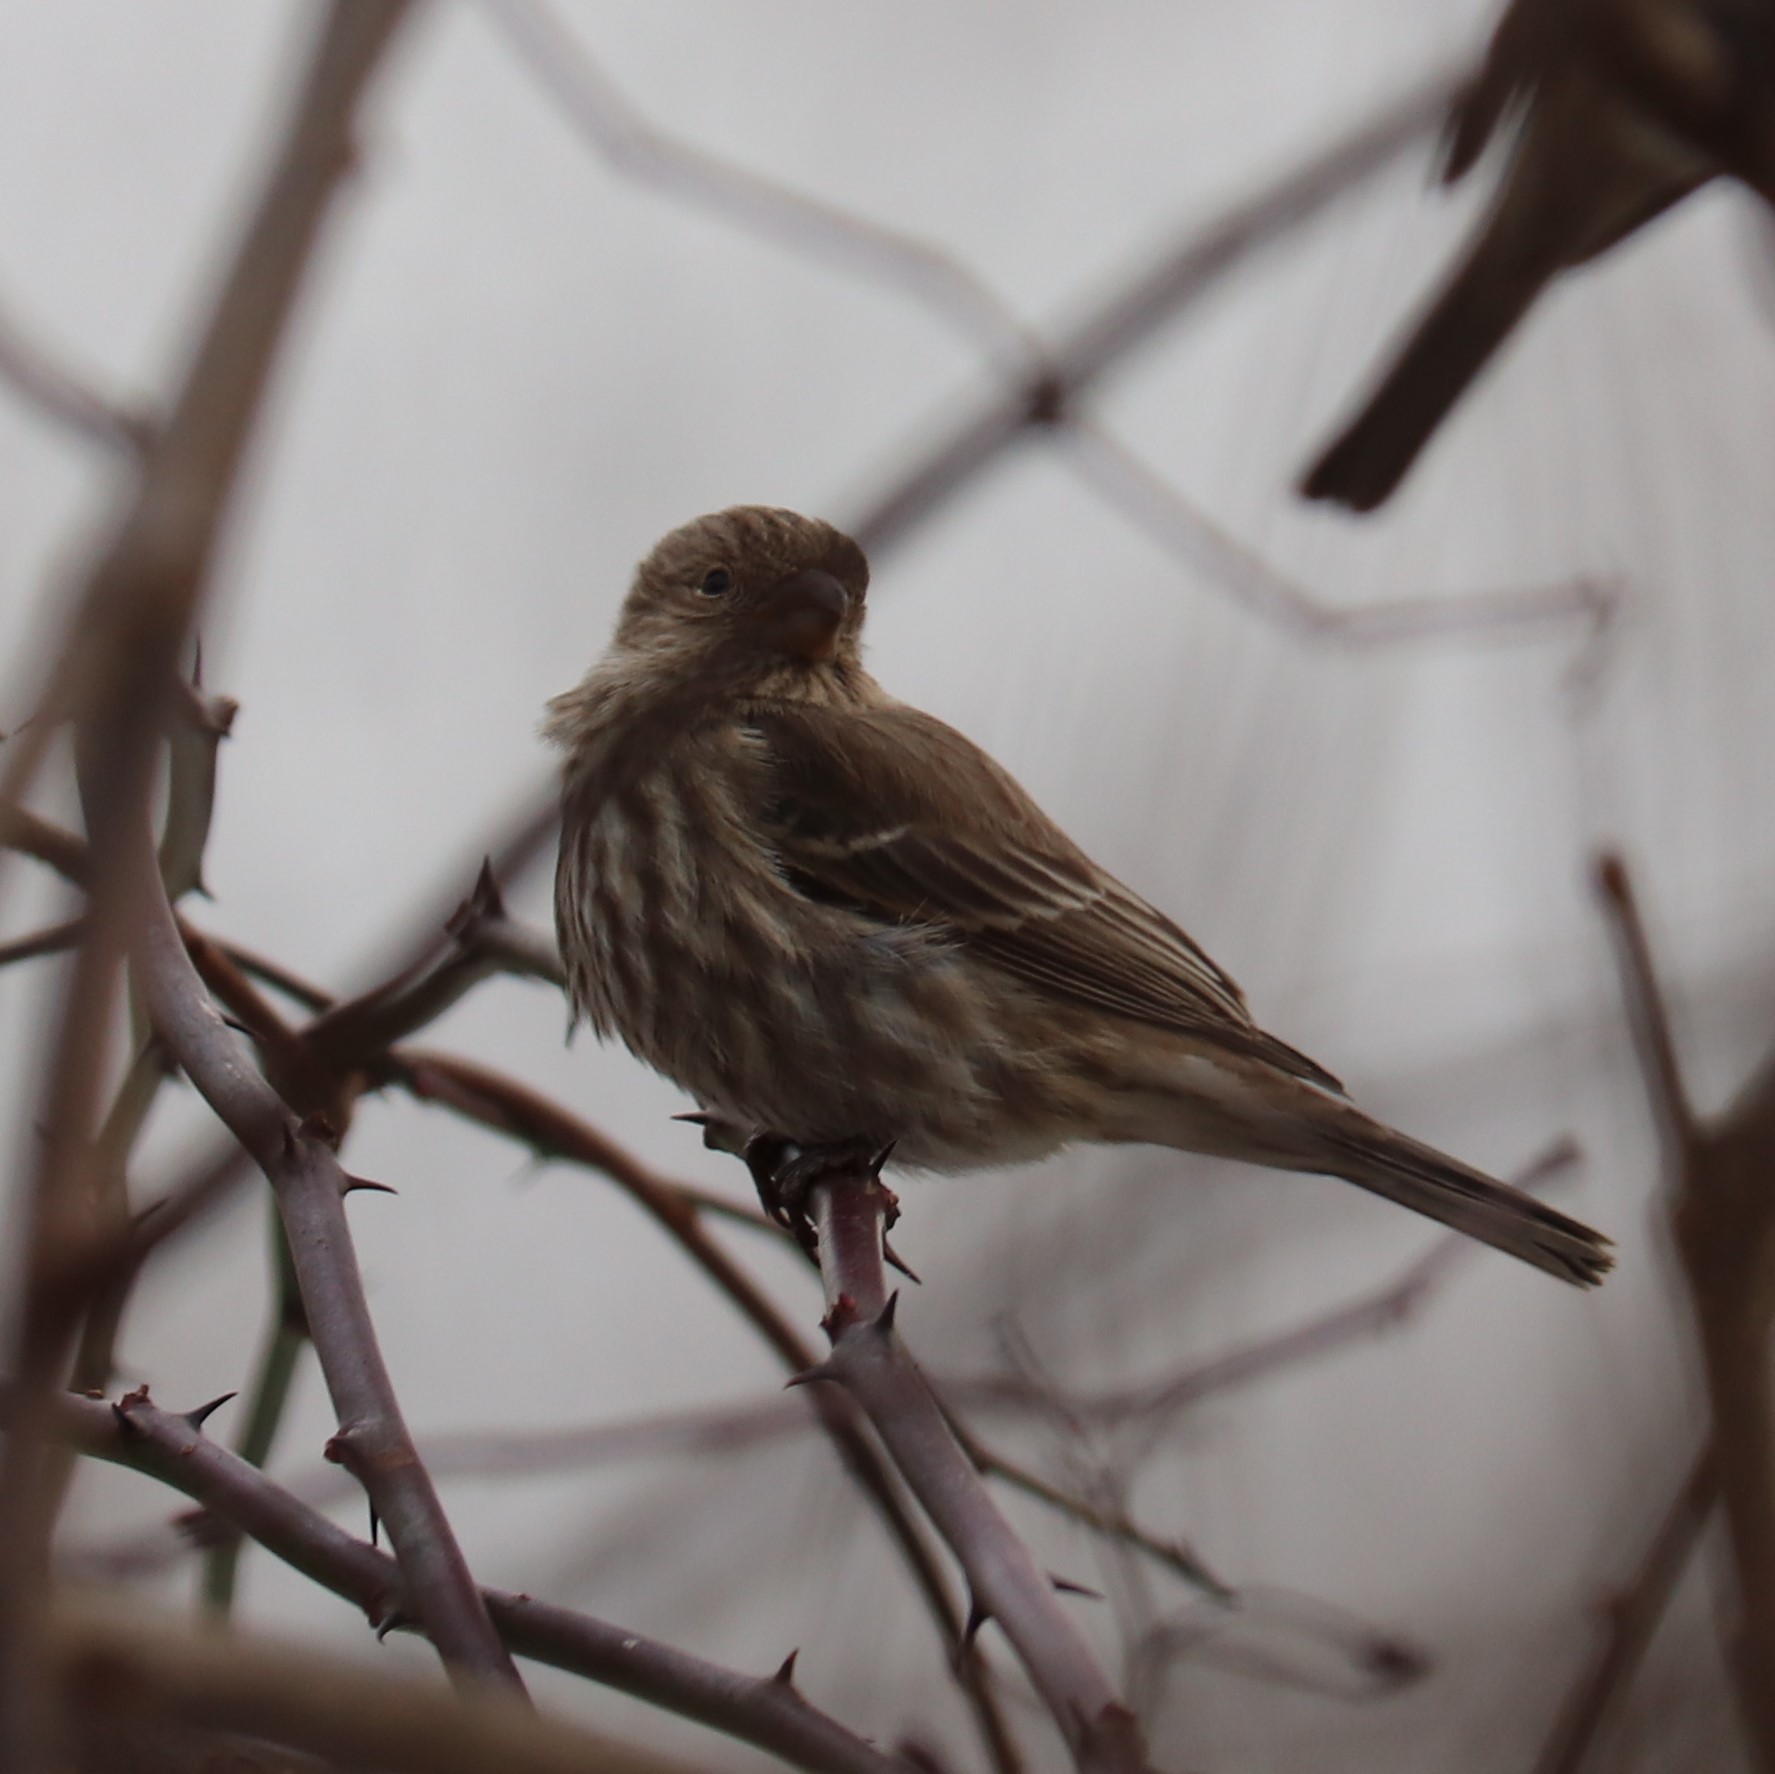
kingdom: Animalia
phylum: Chordata
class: Aves
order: Passeriformes
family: Fringillidae
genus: Haemorhous
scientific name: Haemorhous mexicanus
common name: House finch
